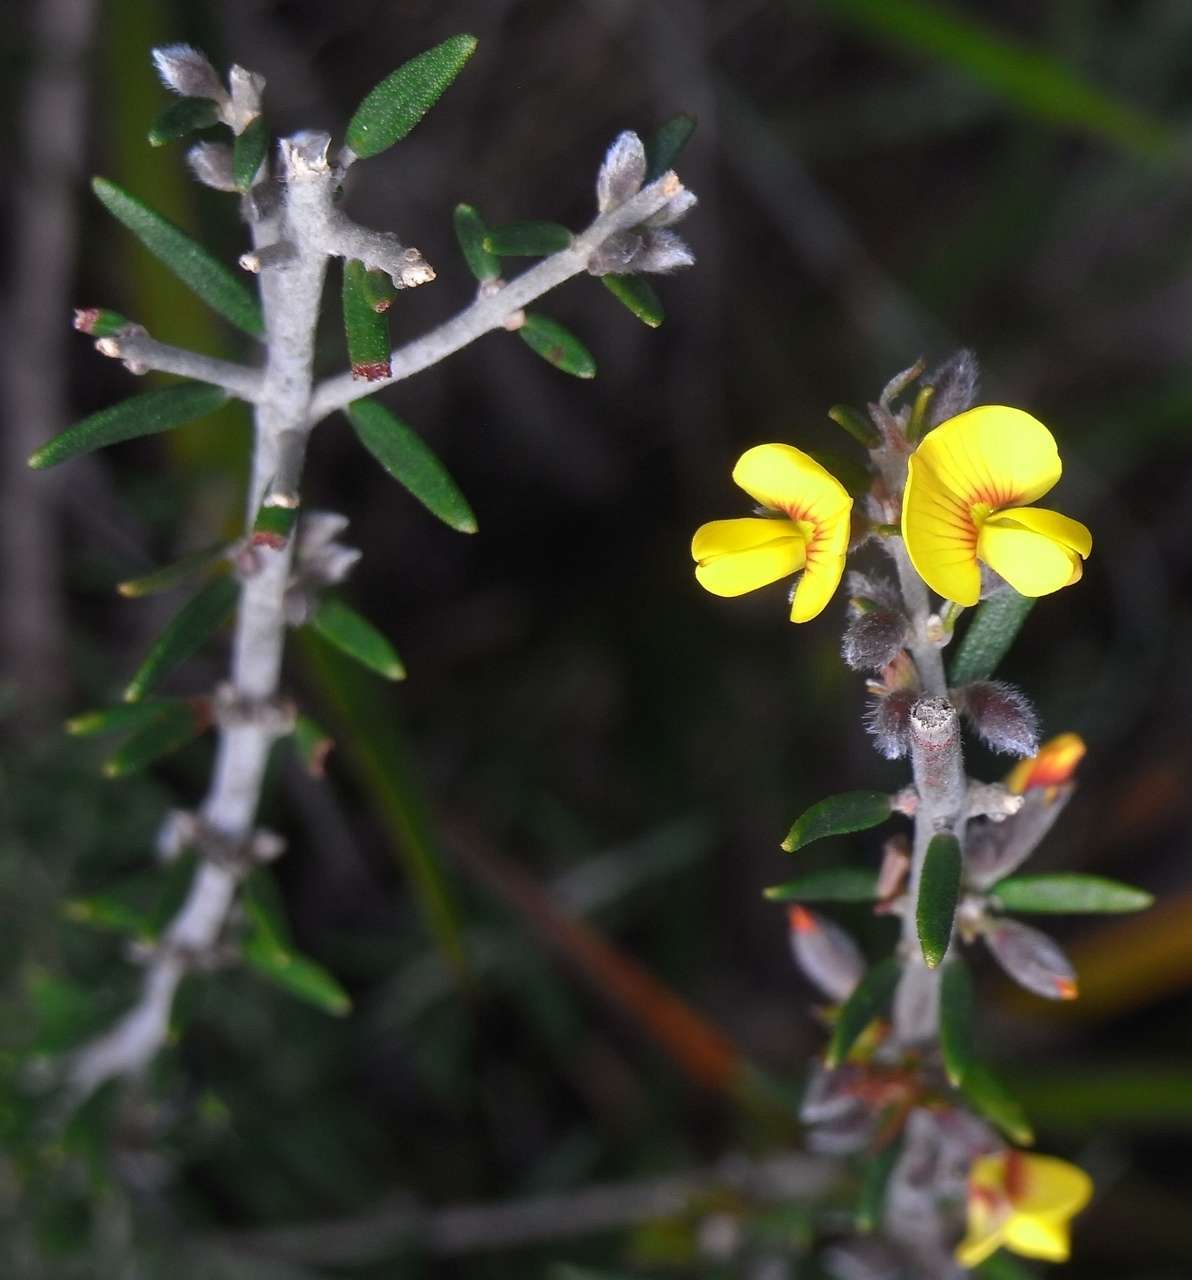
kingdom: Plantae
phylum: Tracheophyta
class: Magnoliopsida
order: Fabales
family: Fabaceae
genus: Aotus
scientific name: Aotus ericoides
